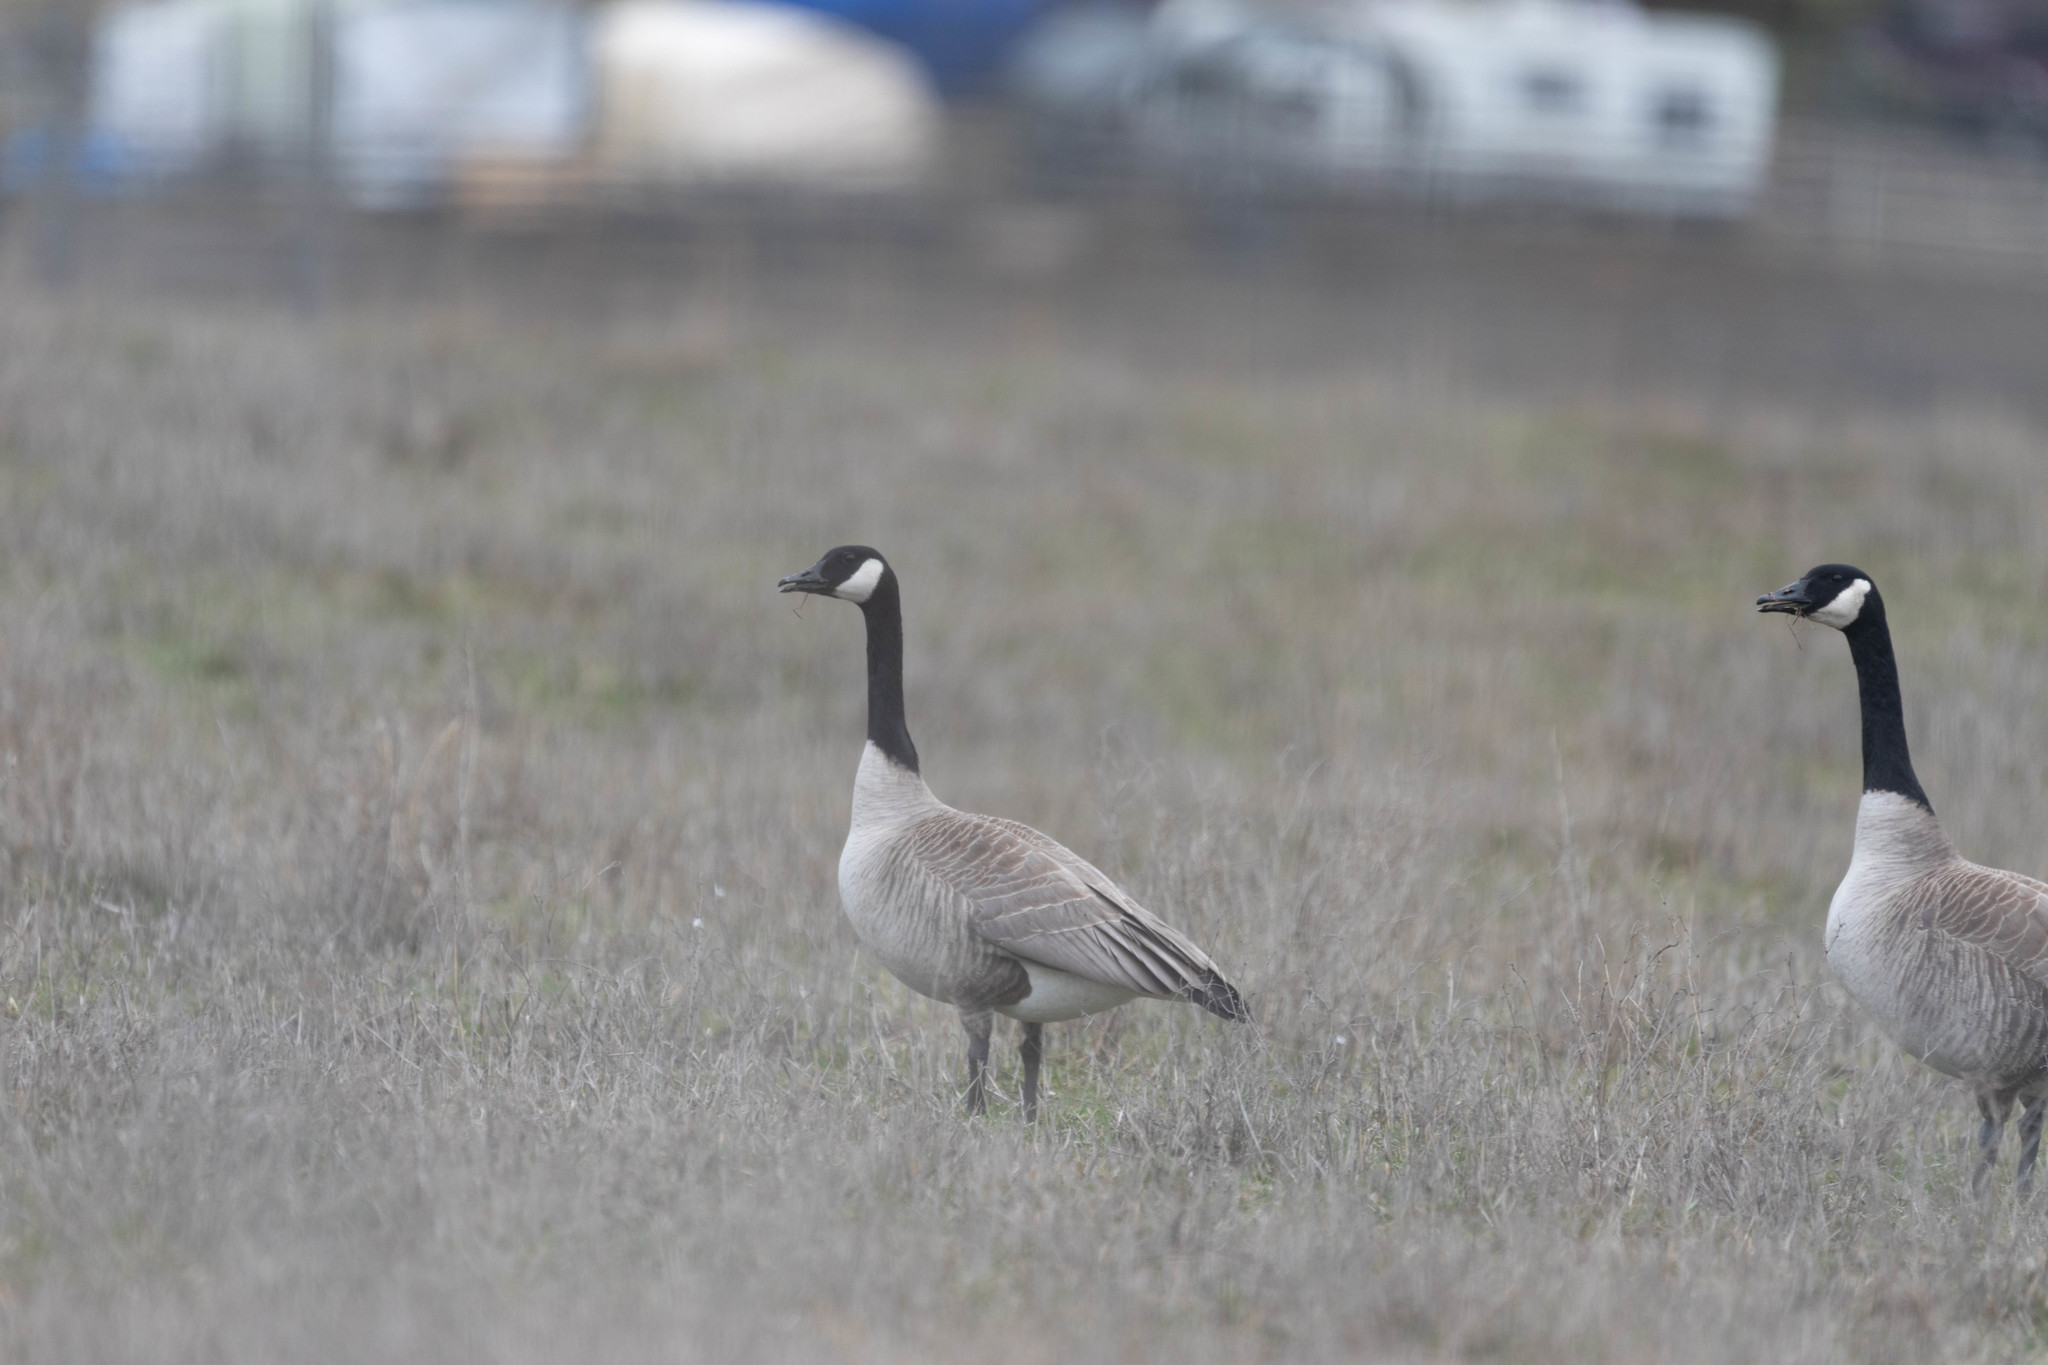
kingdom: Animalia
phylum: Chordata
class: Aves
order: Anseriformes
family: Anatidae
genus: Branta
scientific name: Branta canadensis
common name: Canada goose
